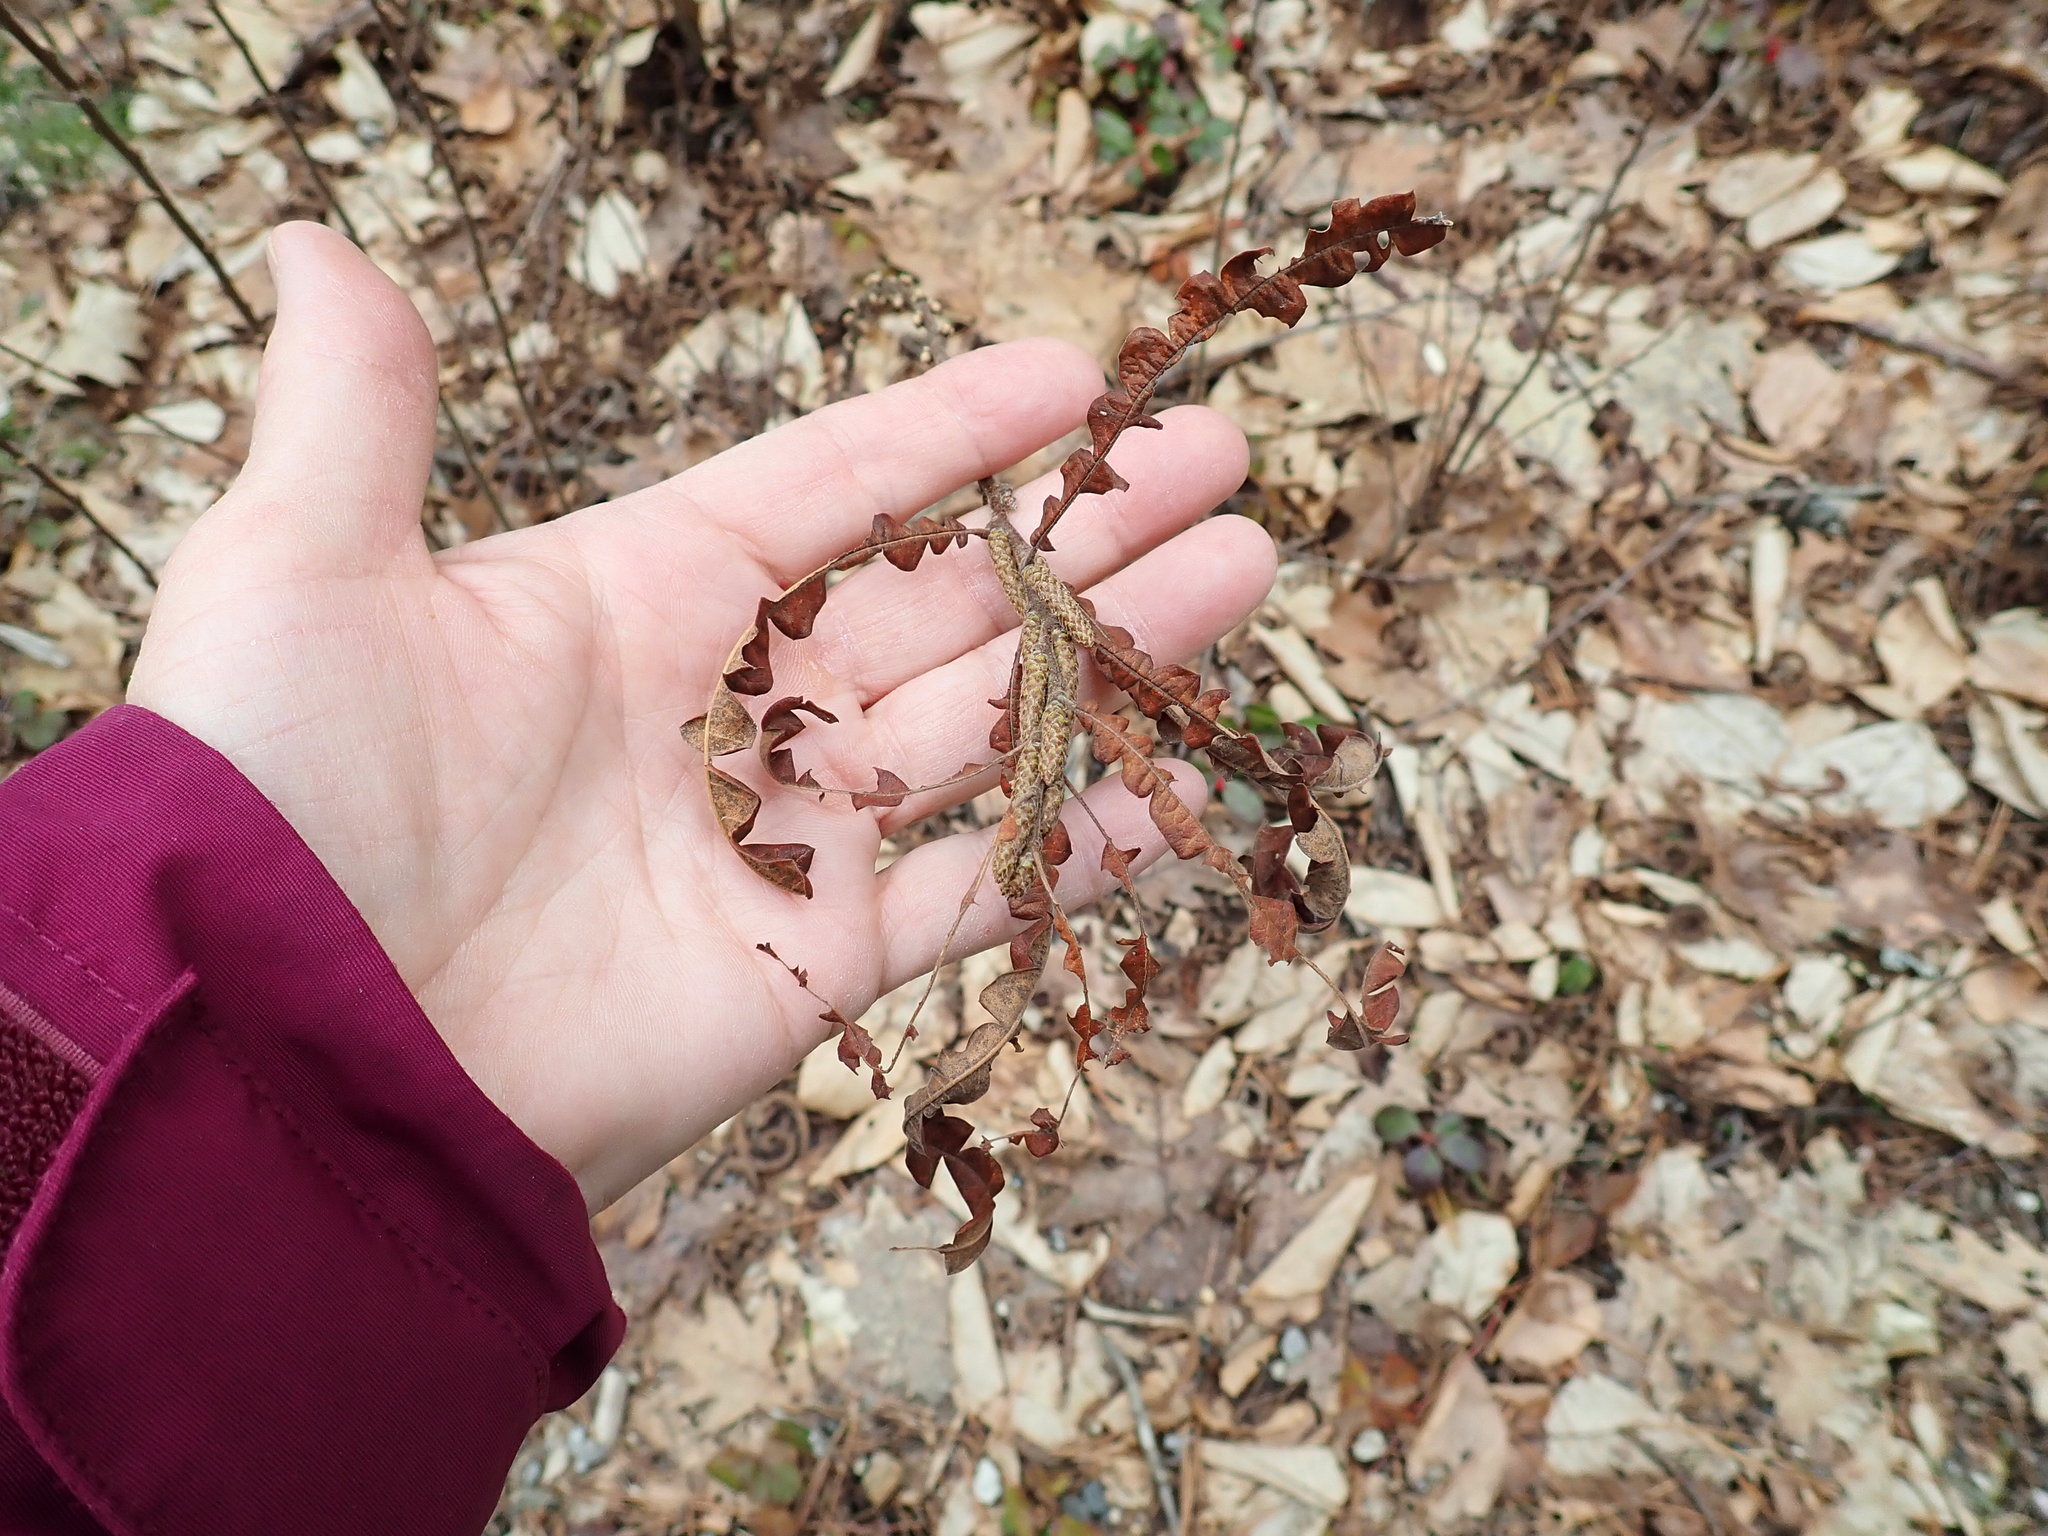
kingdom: Plantae
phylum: Tracheophyta
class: Magnoliopsida
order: Fagales
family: Myricaceae
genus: Comptonia
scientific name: Comptonia peregrina
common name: Sweet-fern
